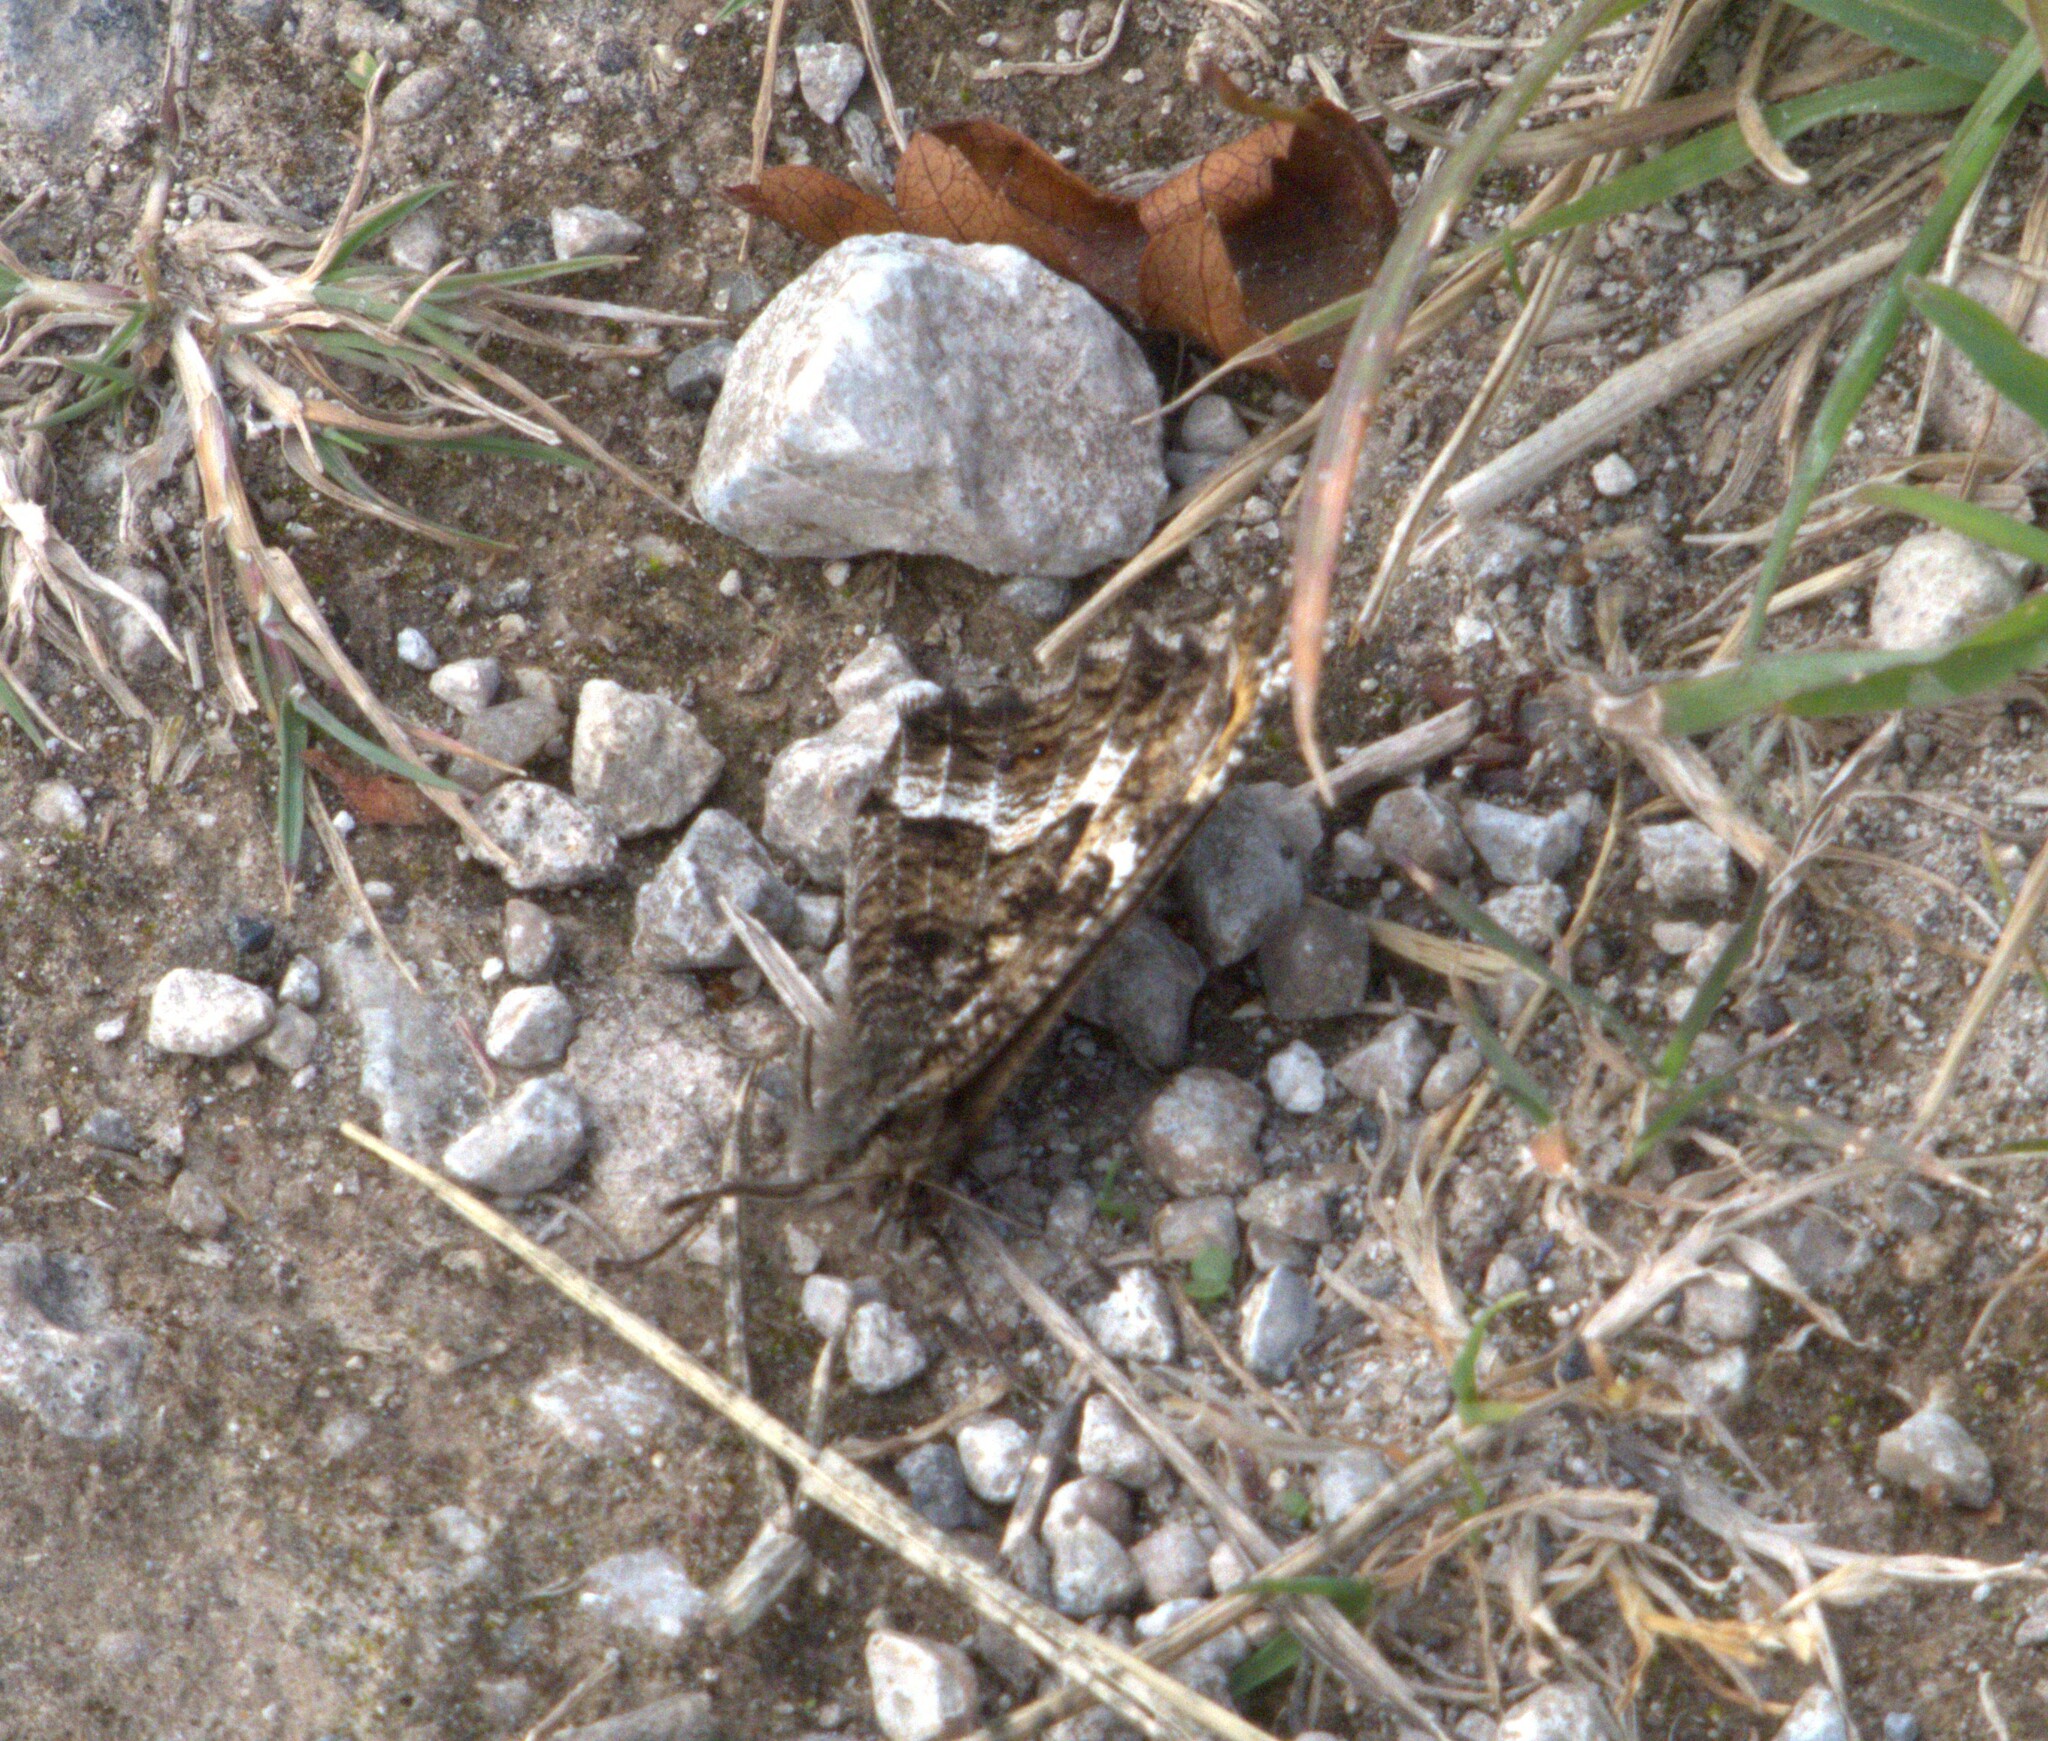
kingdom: Animalia
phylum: Arthropoda
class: Insecta
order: Lepidoptera
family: Nymphalidae
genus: Hipparchia
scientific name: Hipparchia semele
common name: Grayling
